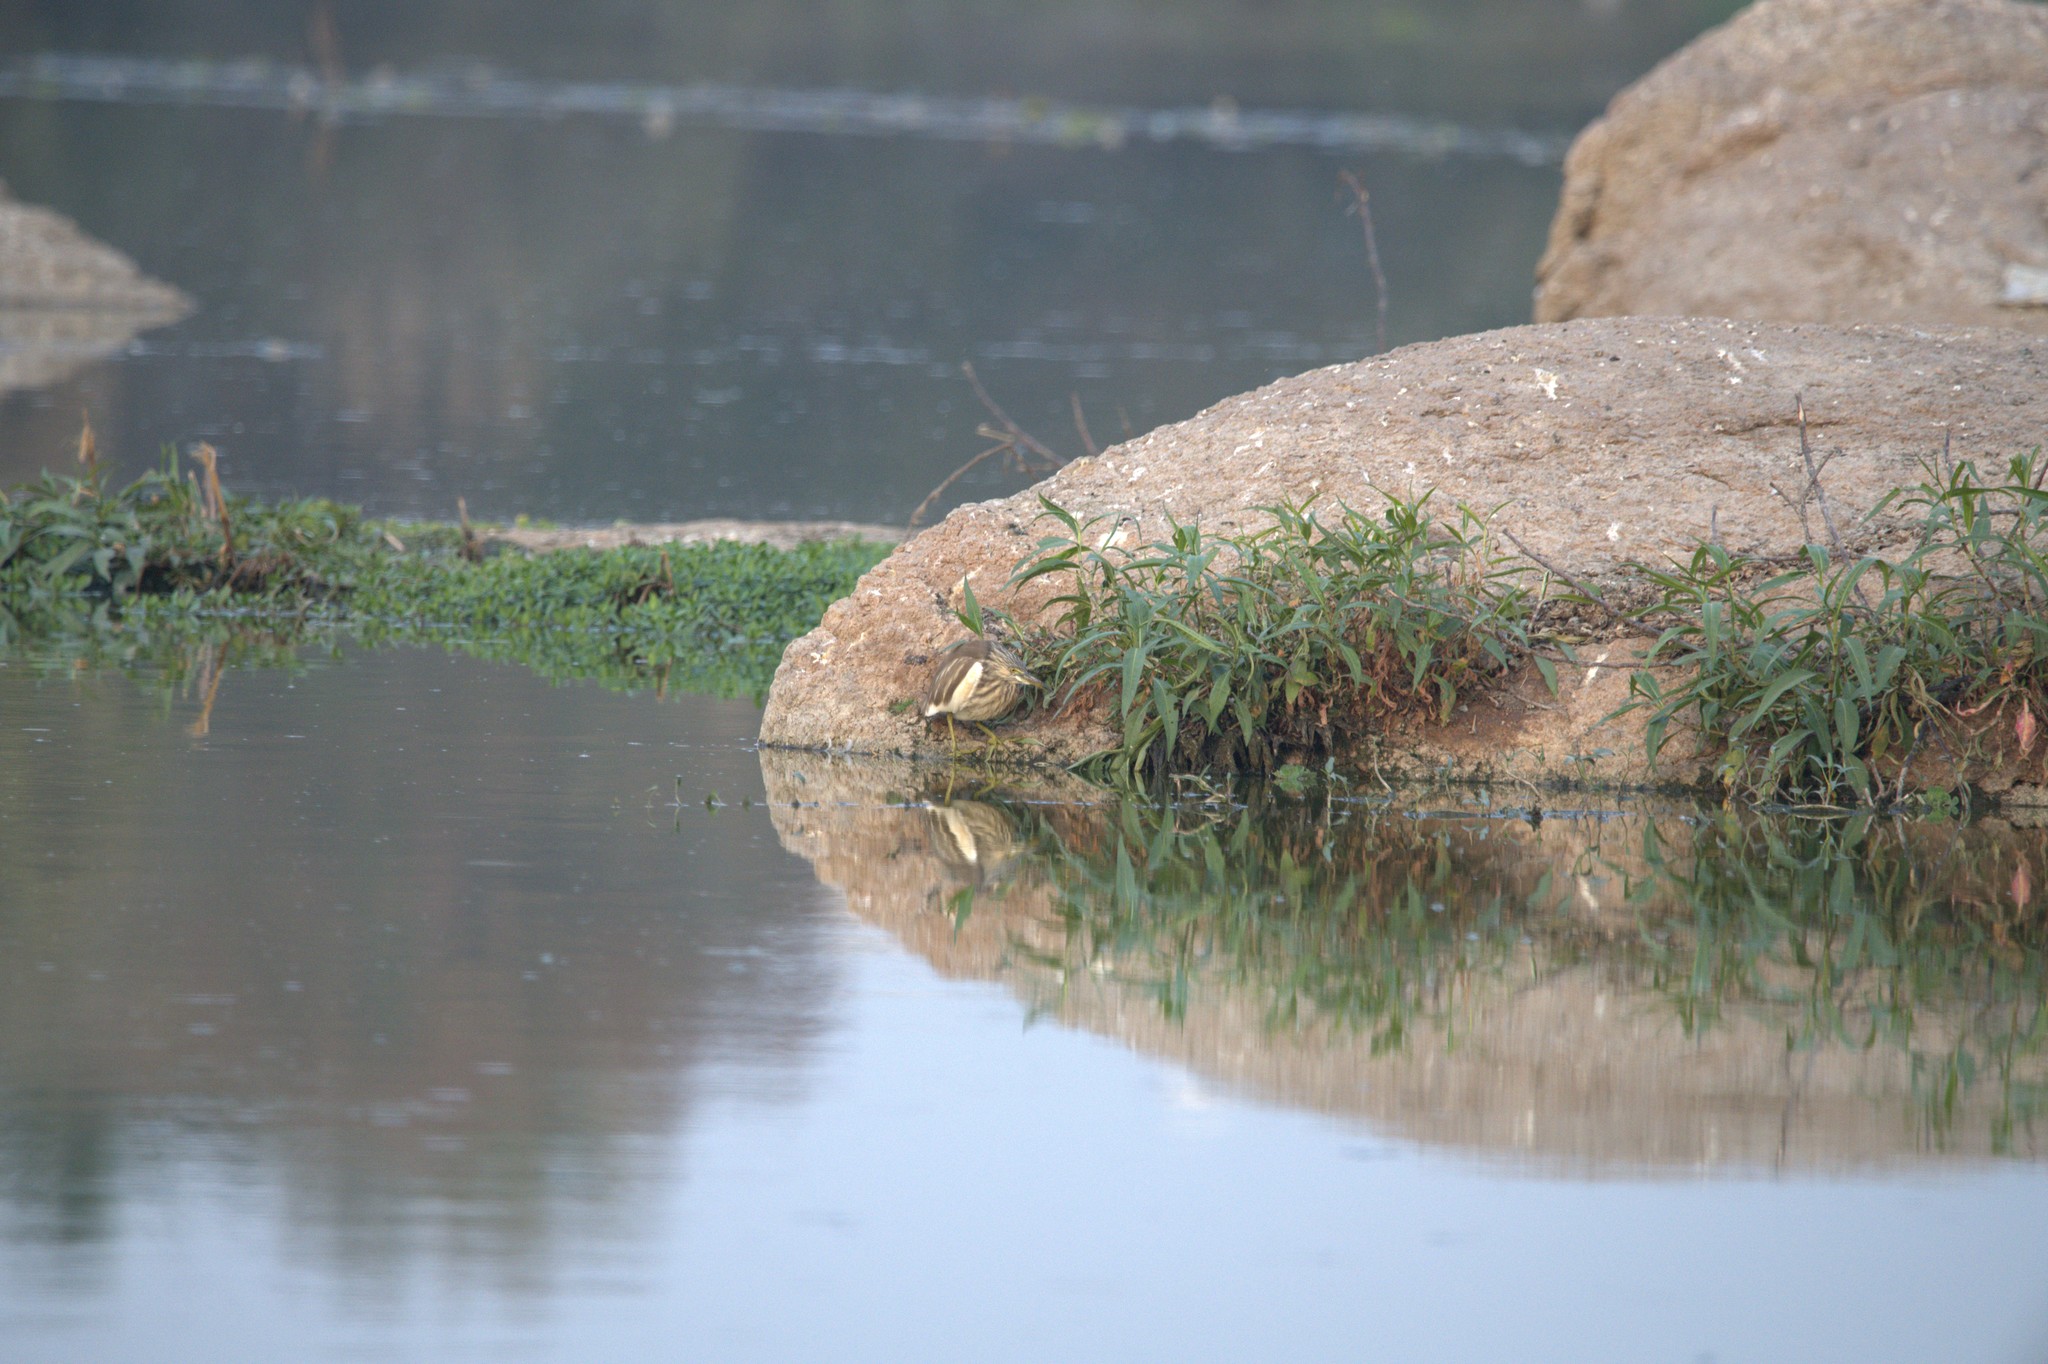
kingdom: Animalia
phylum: Chordata
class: Aves
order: Pelecaniformes
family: Ardeidae
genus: Ardeola
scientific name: Ardeola grayii
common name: Indian pond heron
